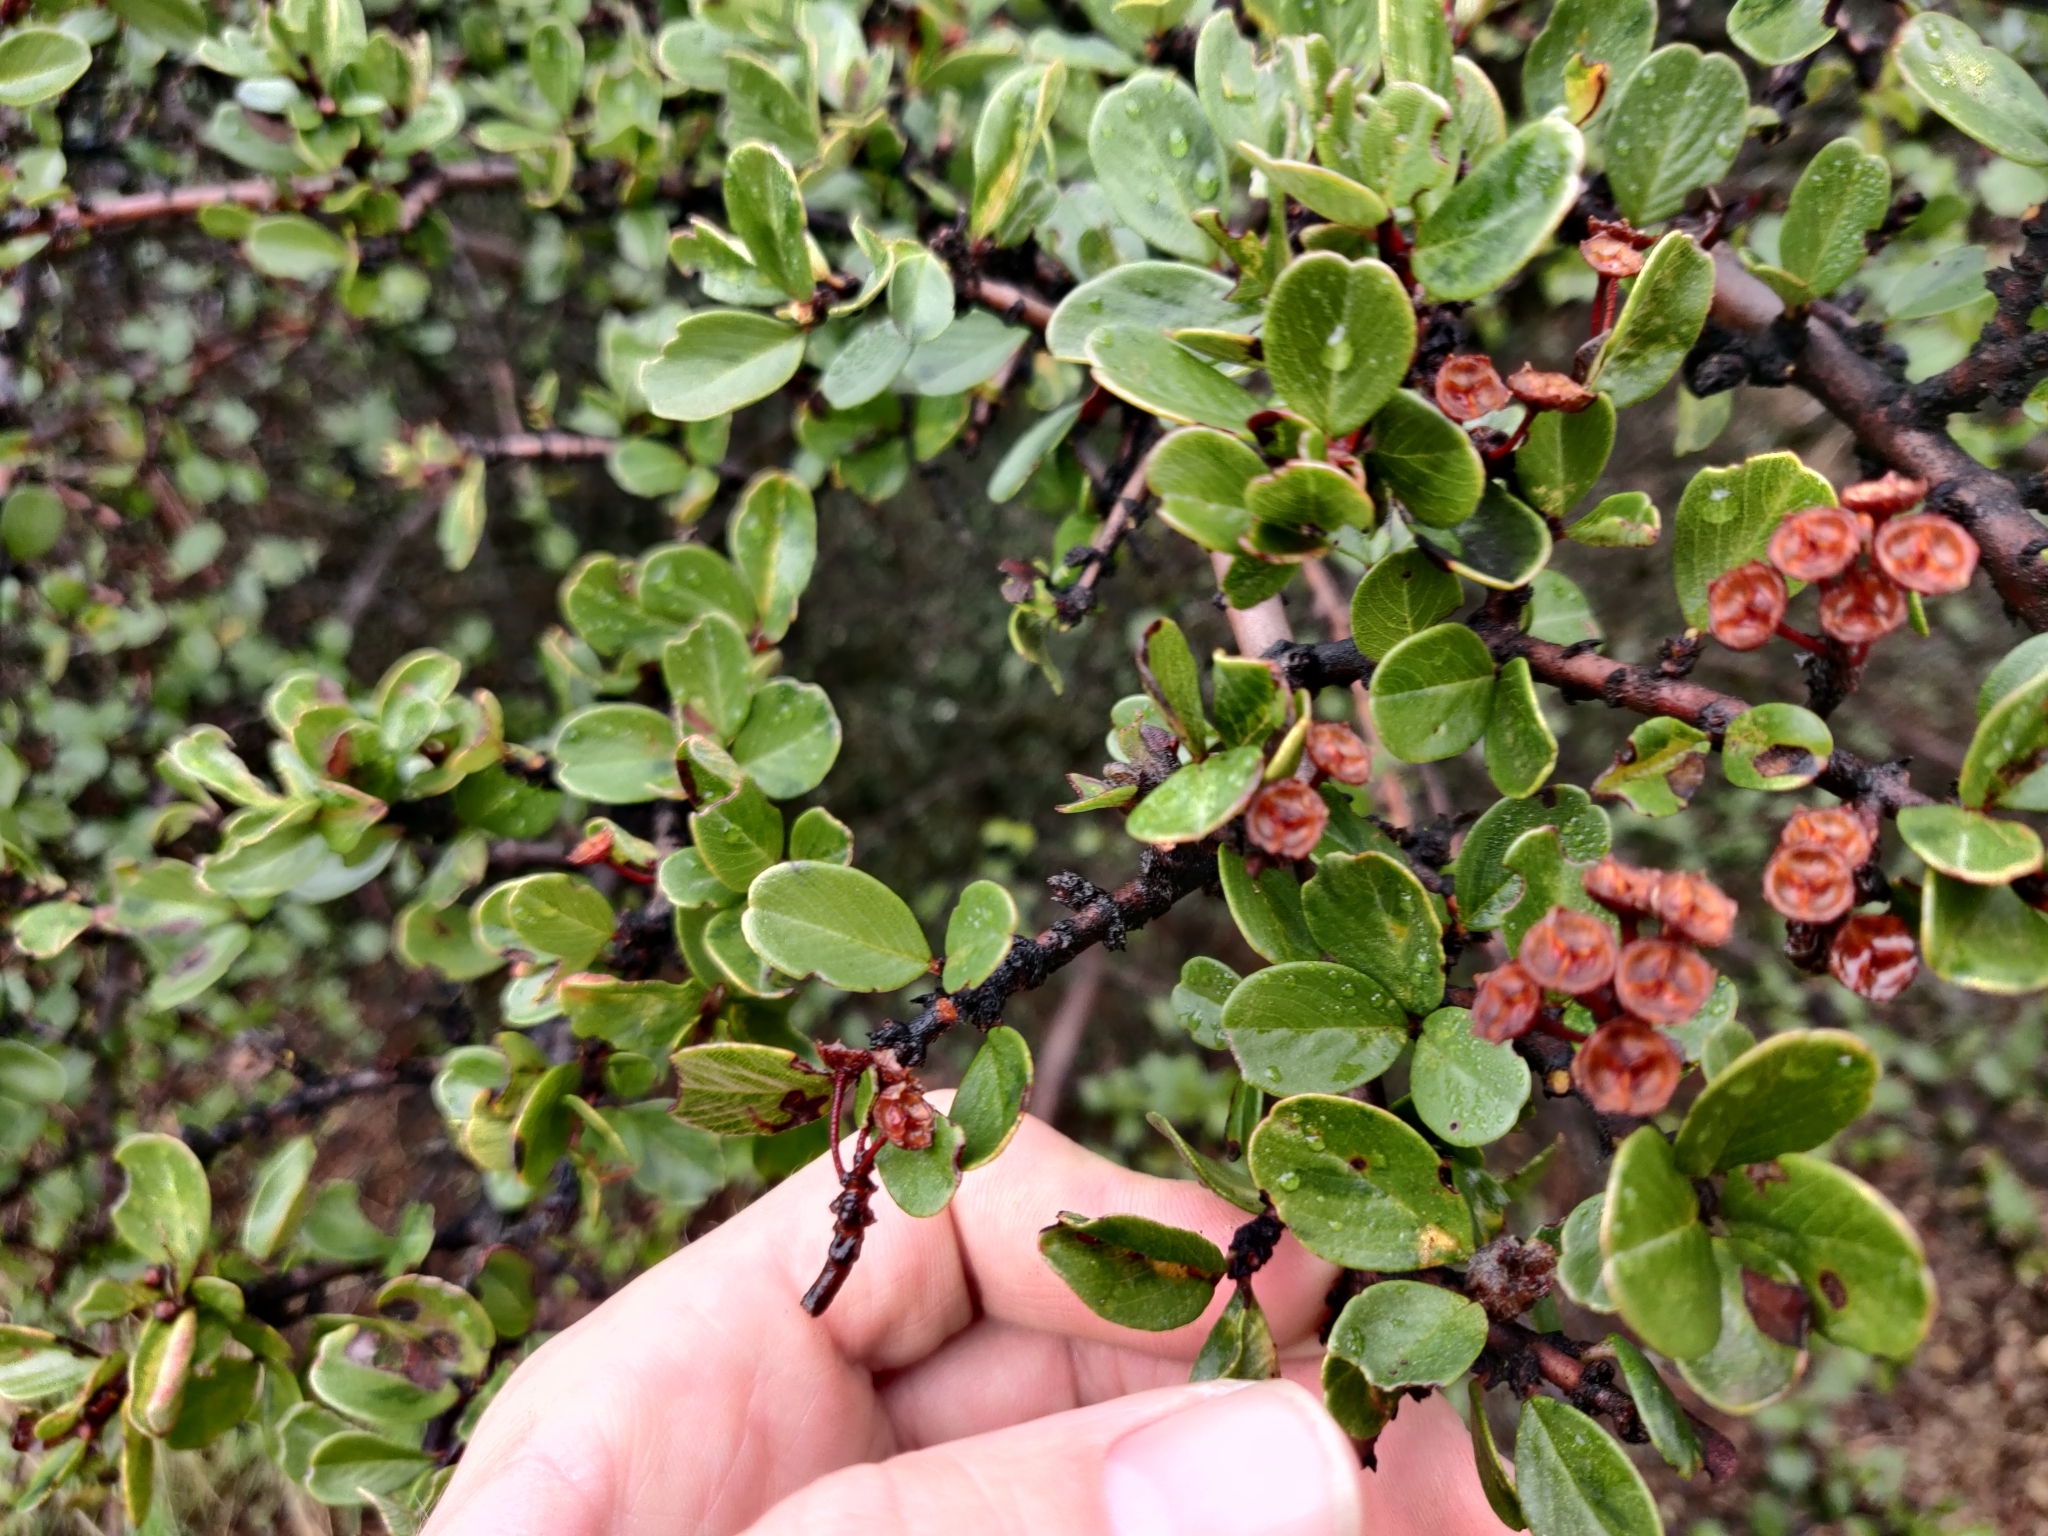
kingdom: Plantae
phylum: Tracheophyta
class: Magnoliopsida
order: Rosales
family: Rhamnaceae
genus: Endotropis
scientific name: Endotropis crocea
